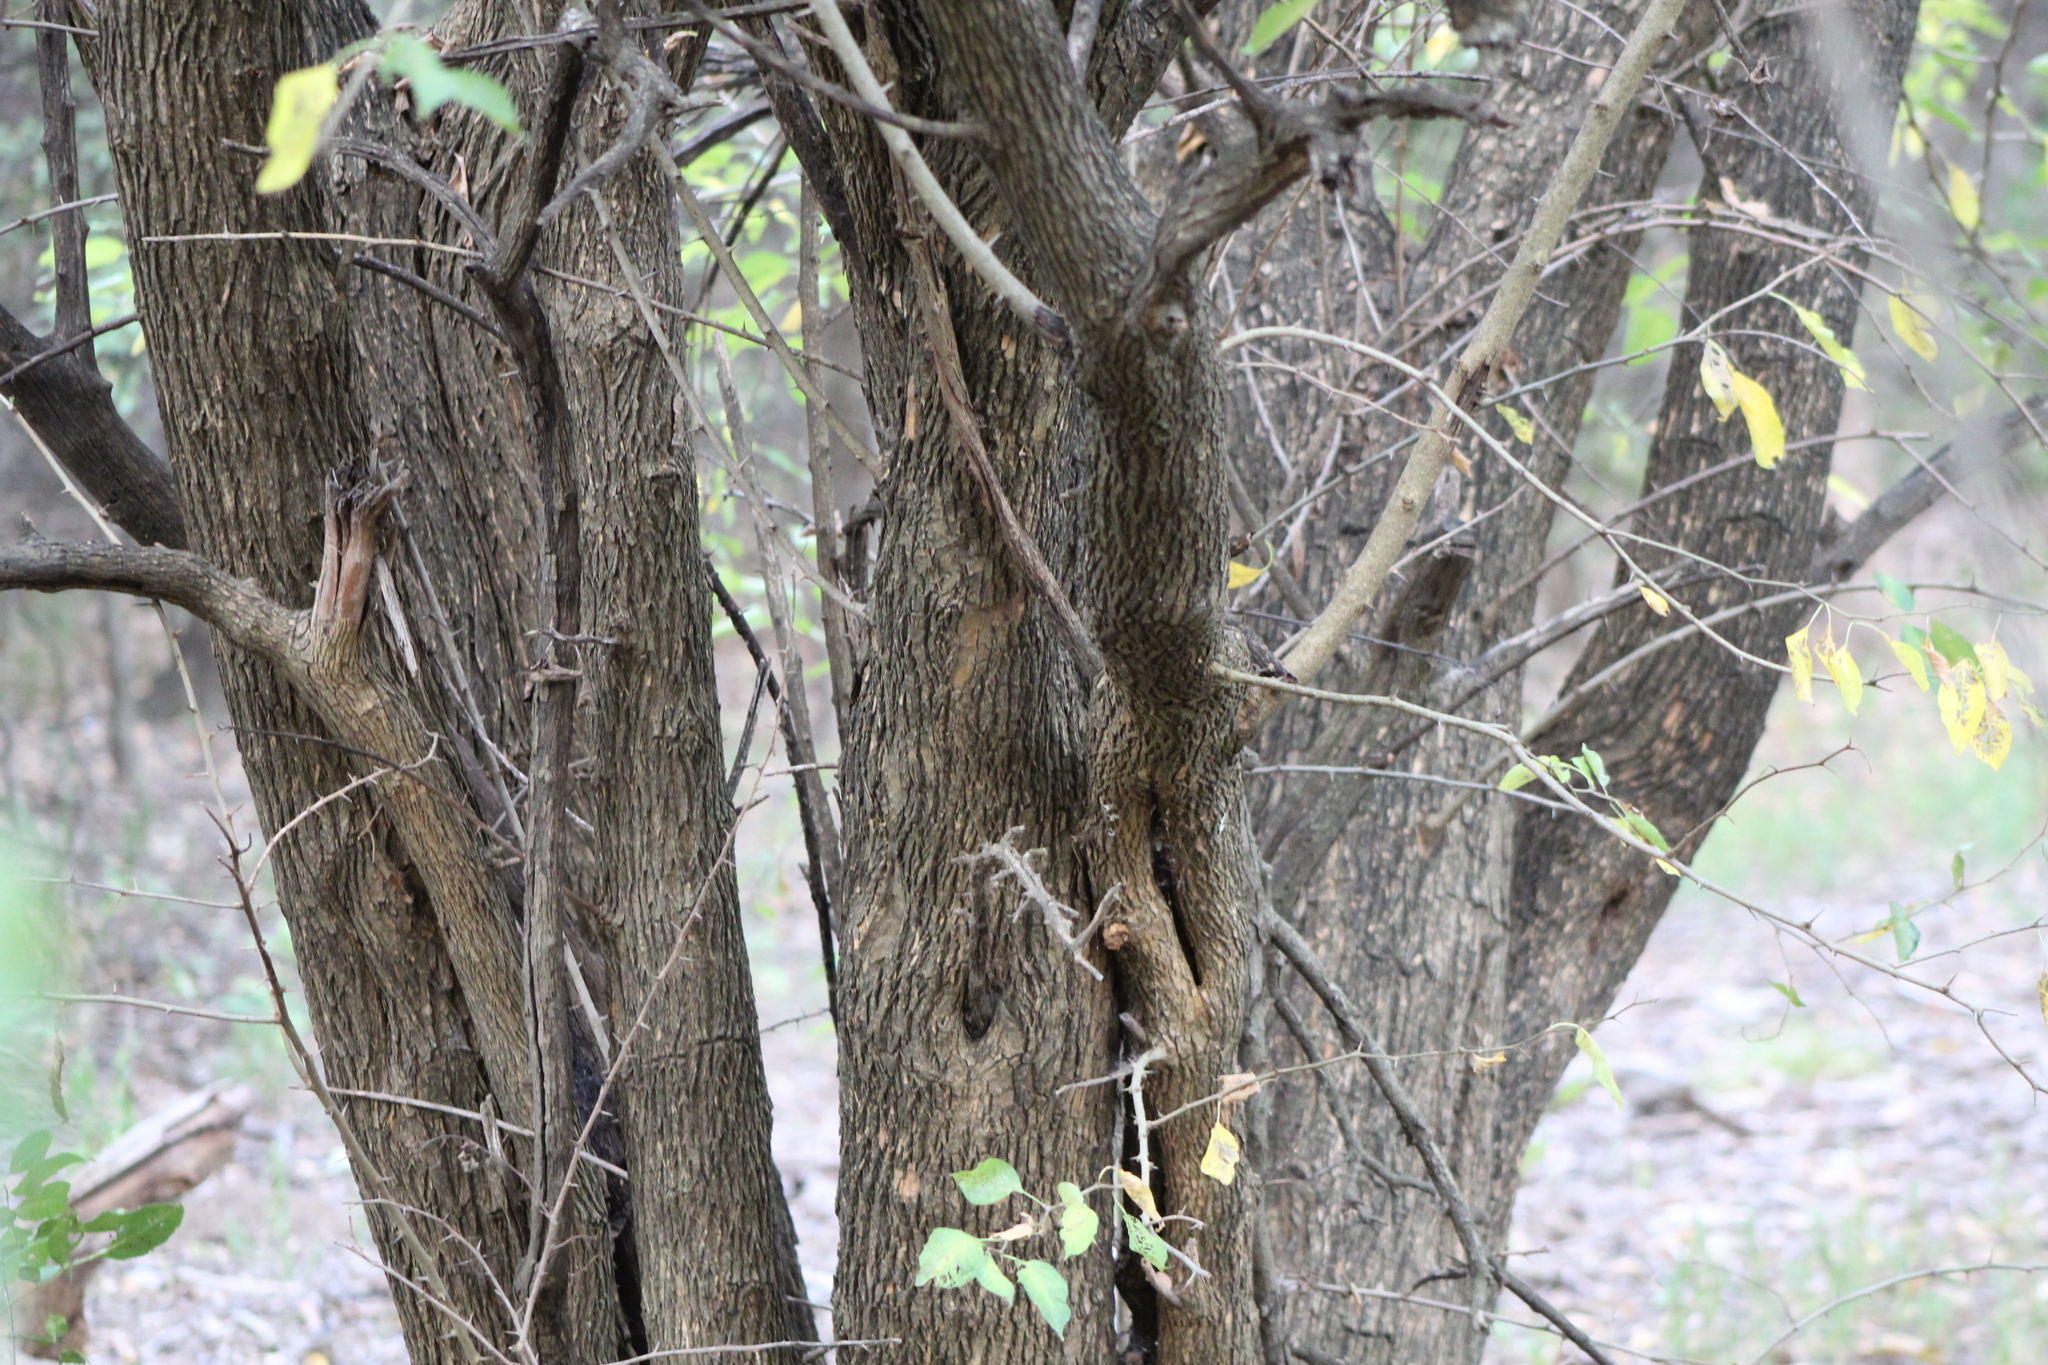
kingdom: Plantae
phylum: Tracheophyta
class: Magnoliopsida
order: Rosales
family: Moraceae
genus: Maclura
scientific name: Maclura pomifera
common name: Osage-orange
